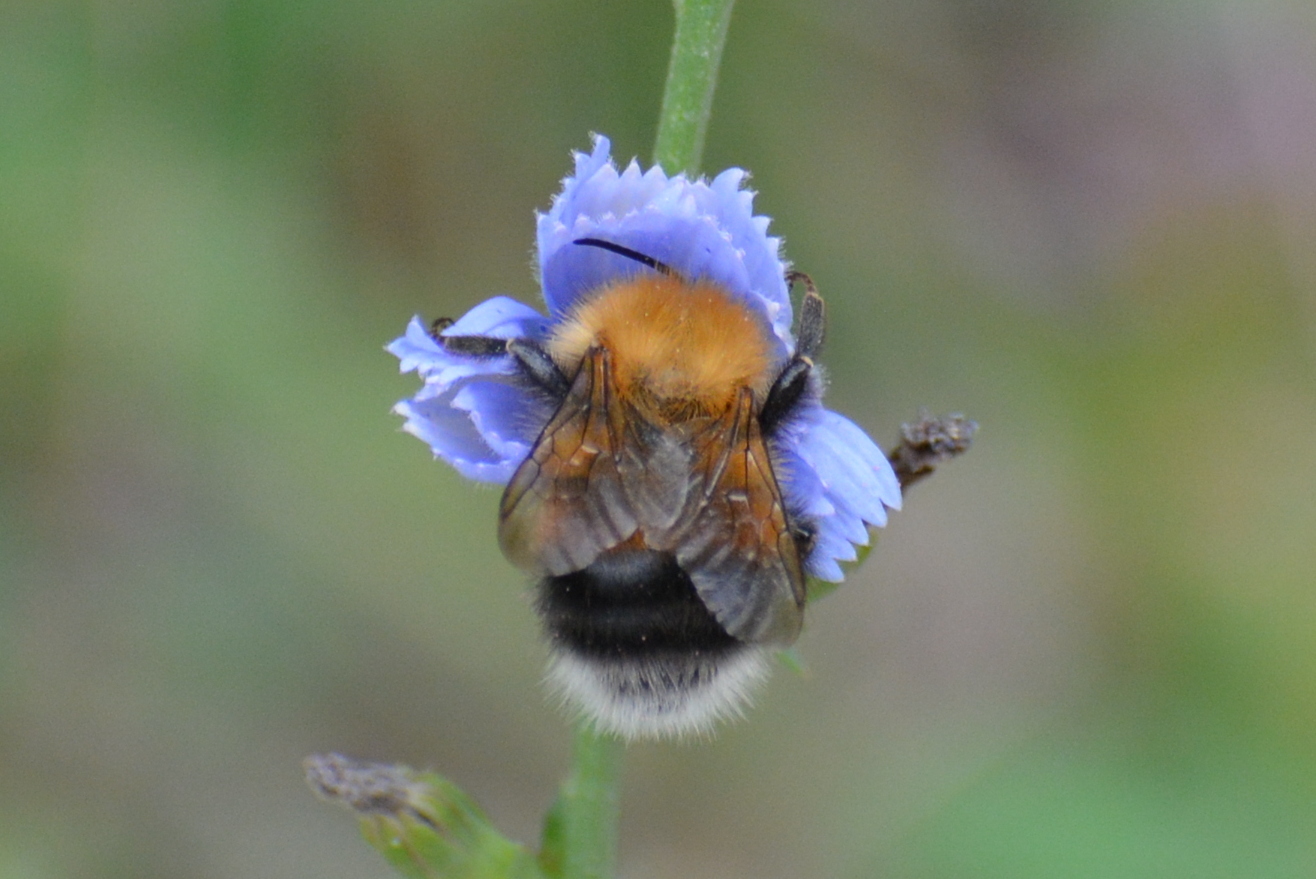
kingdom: Animalia
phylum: Arthropoda
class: Insecta
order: Hymenoptera
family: Apidae
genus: Bombus
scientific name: Bombus hypnorum
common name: New garden bumblebee
